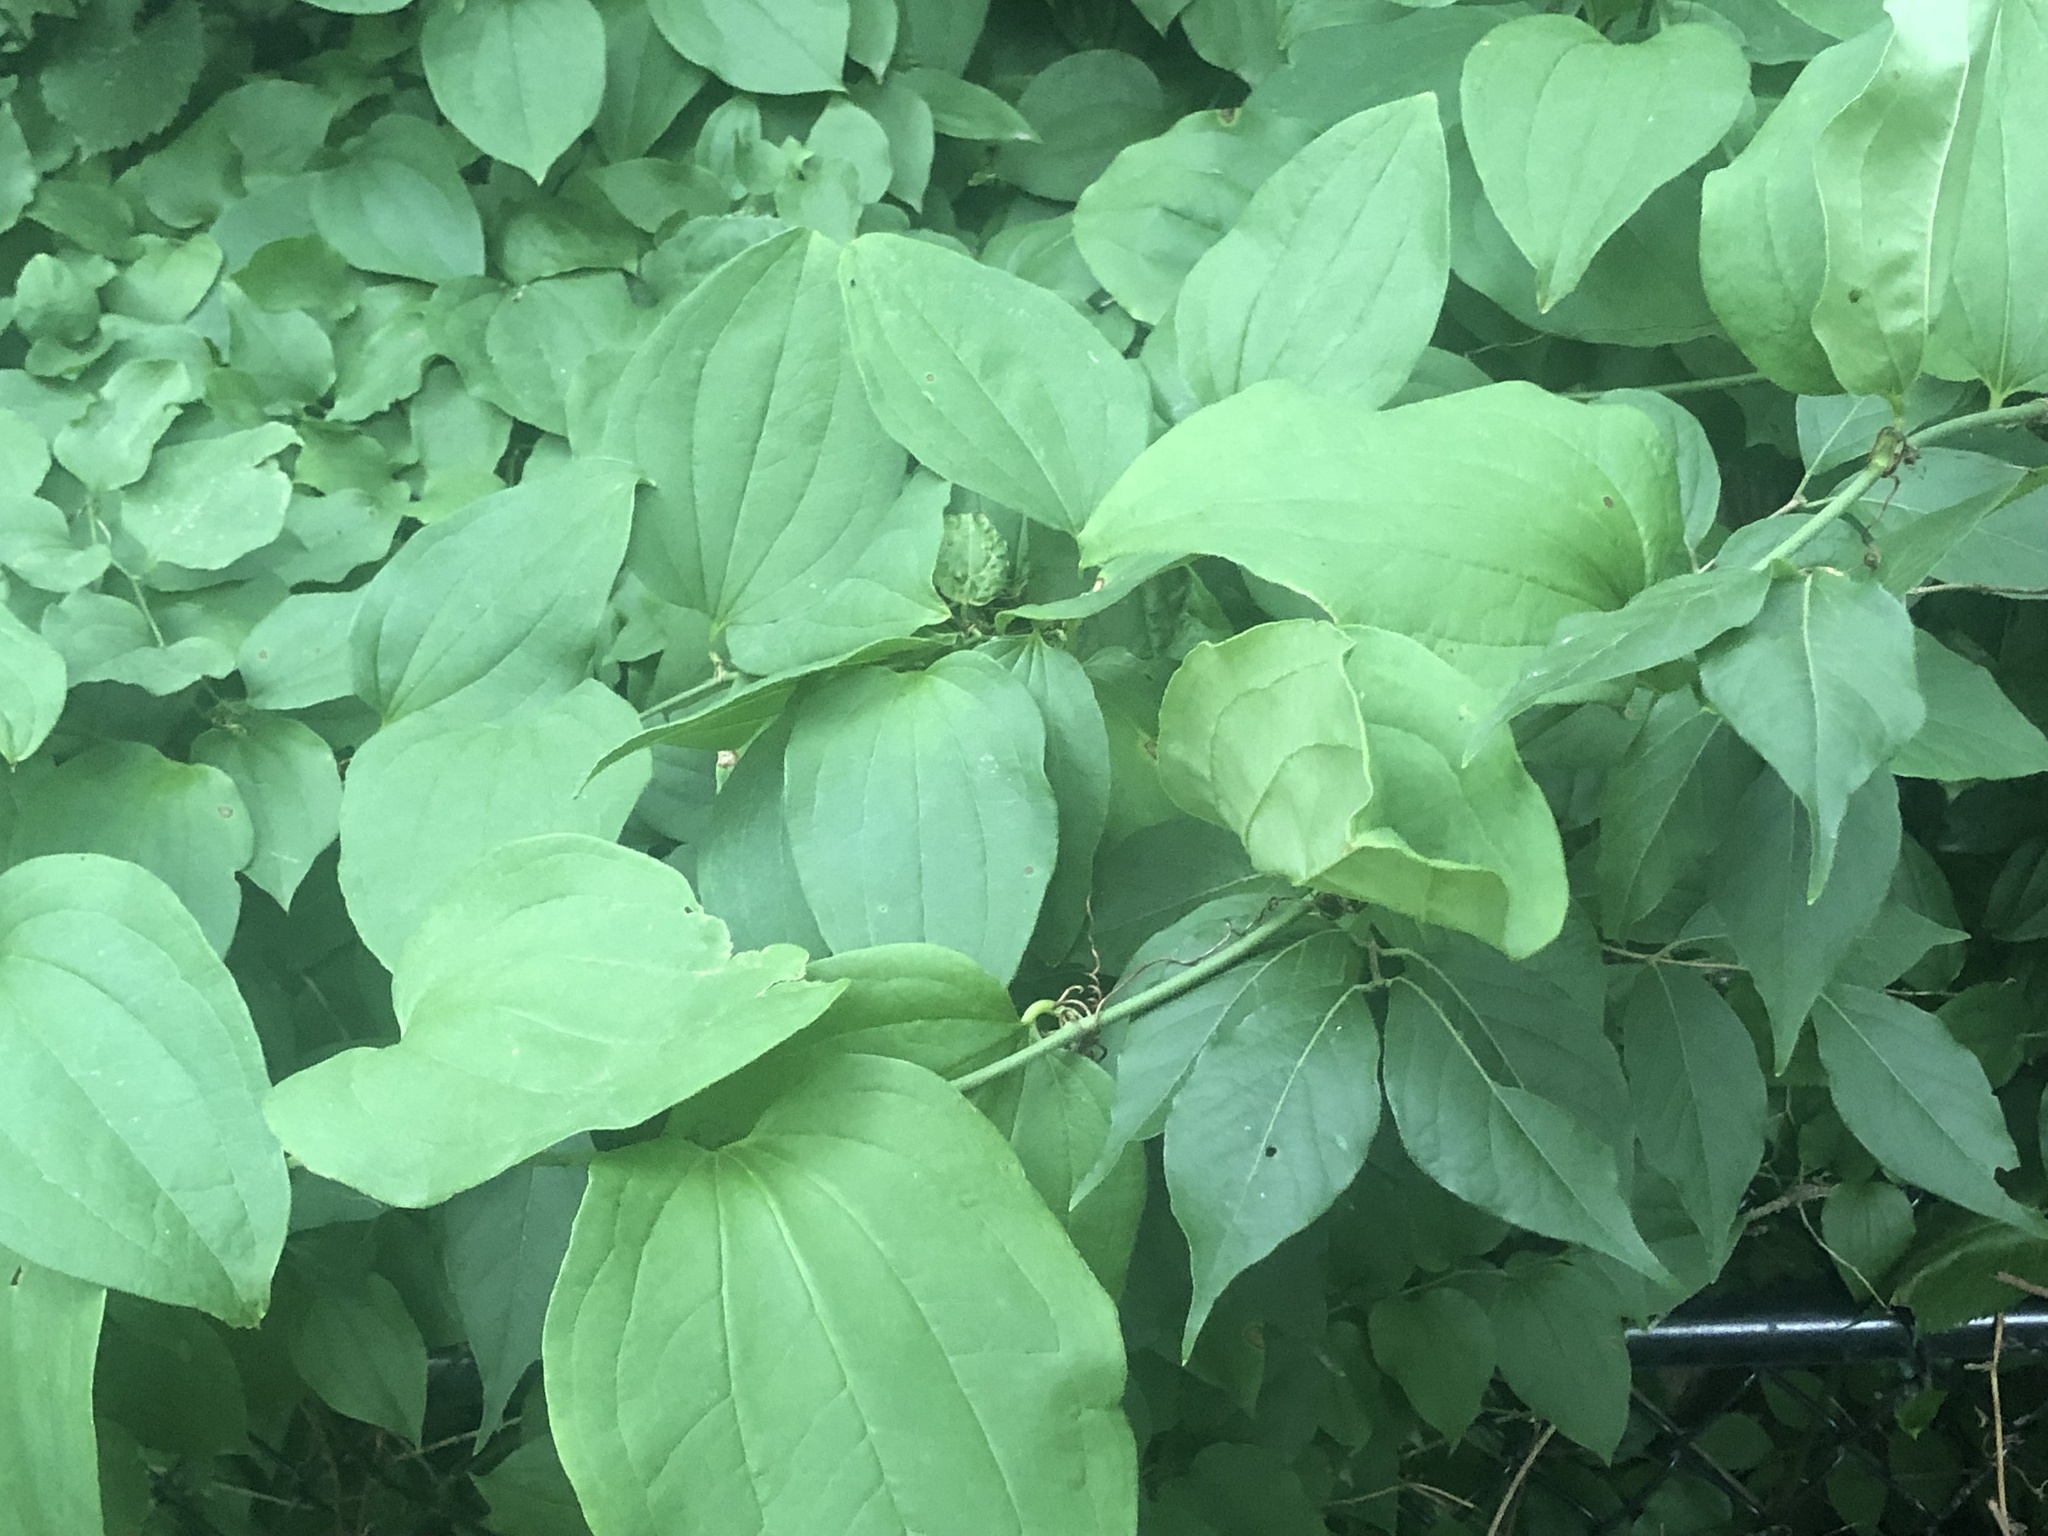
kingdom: Plantae
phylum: Tracheophyta
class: Liliopsida
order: Liliales
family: Smilacaceae
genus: Smilax
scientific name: Smilax tamnoides
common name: Hellfetter
